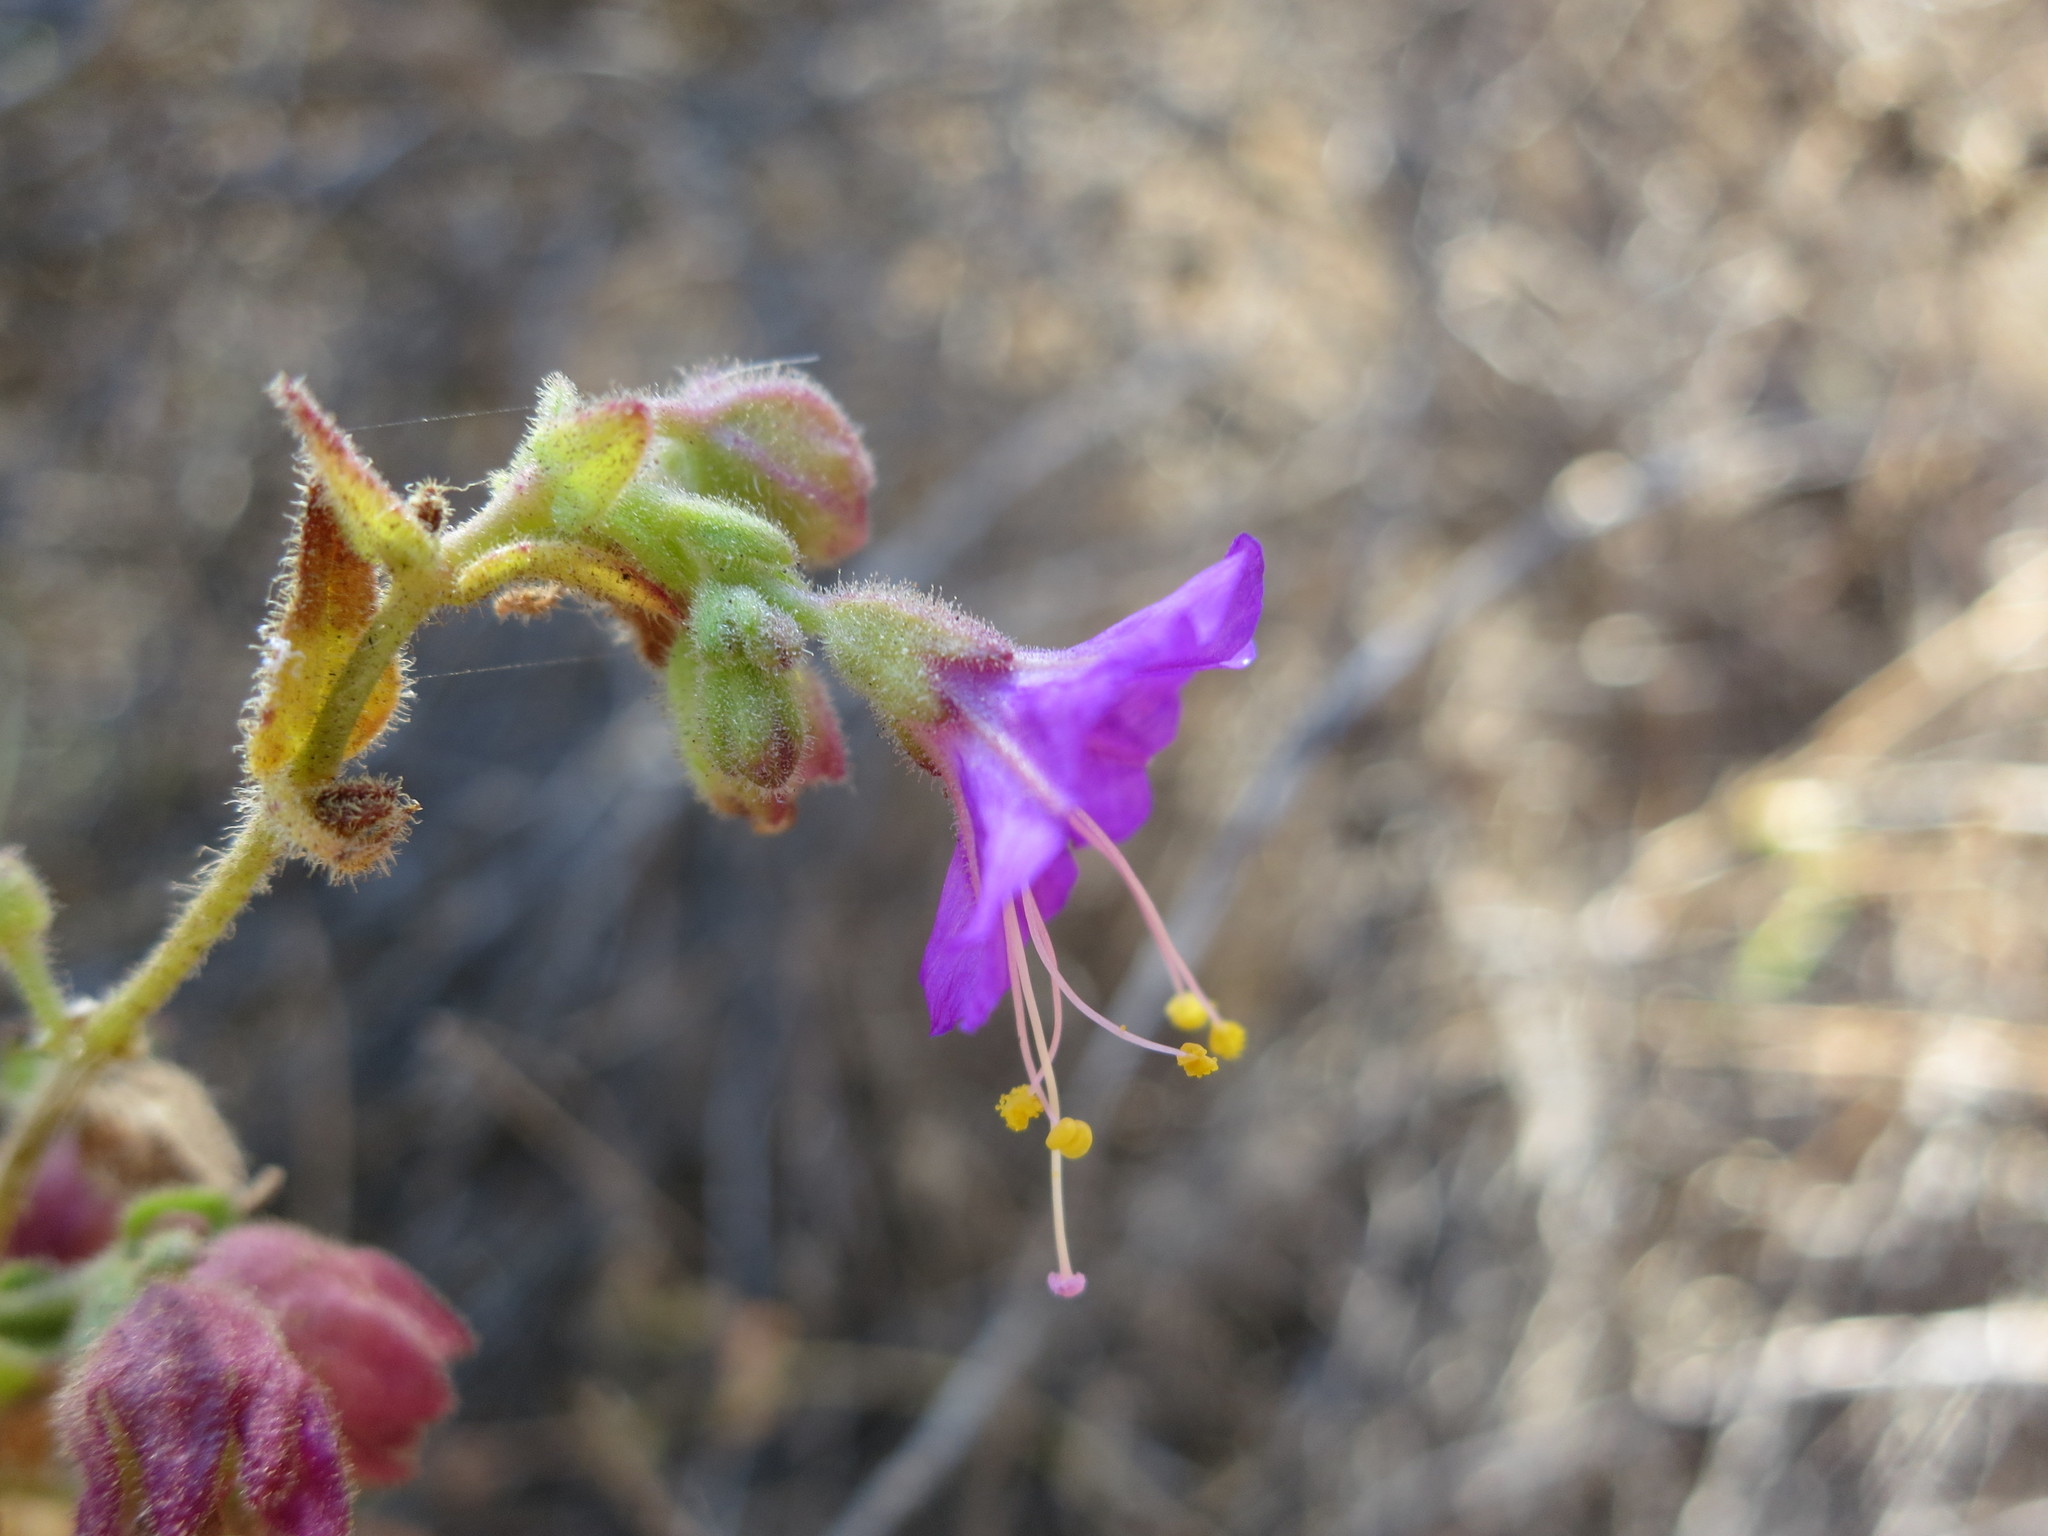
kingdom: Plantae
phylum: Tracheophyta
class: Magnoliopsida
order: Caryophyllales
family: Nyctaginaceae
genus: Mirabilis
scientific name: Mirabilis laevis
